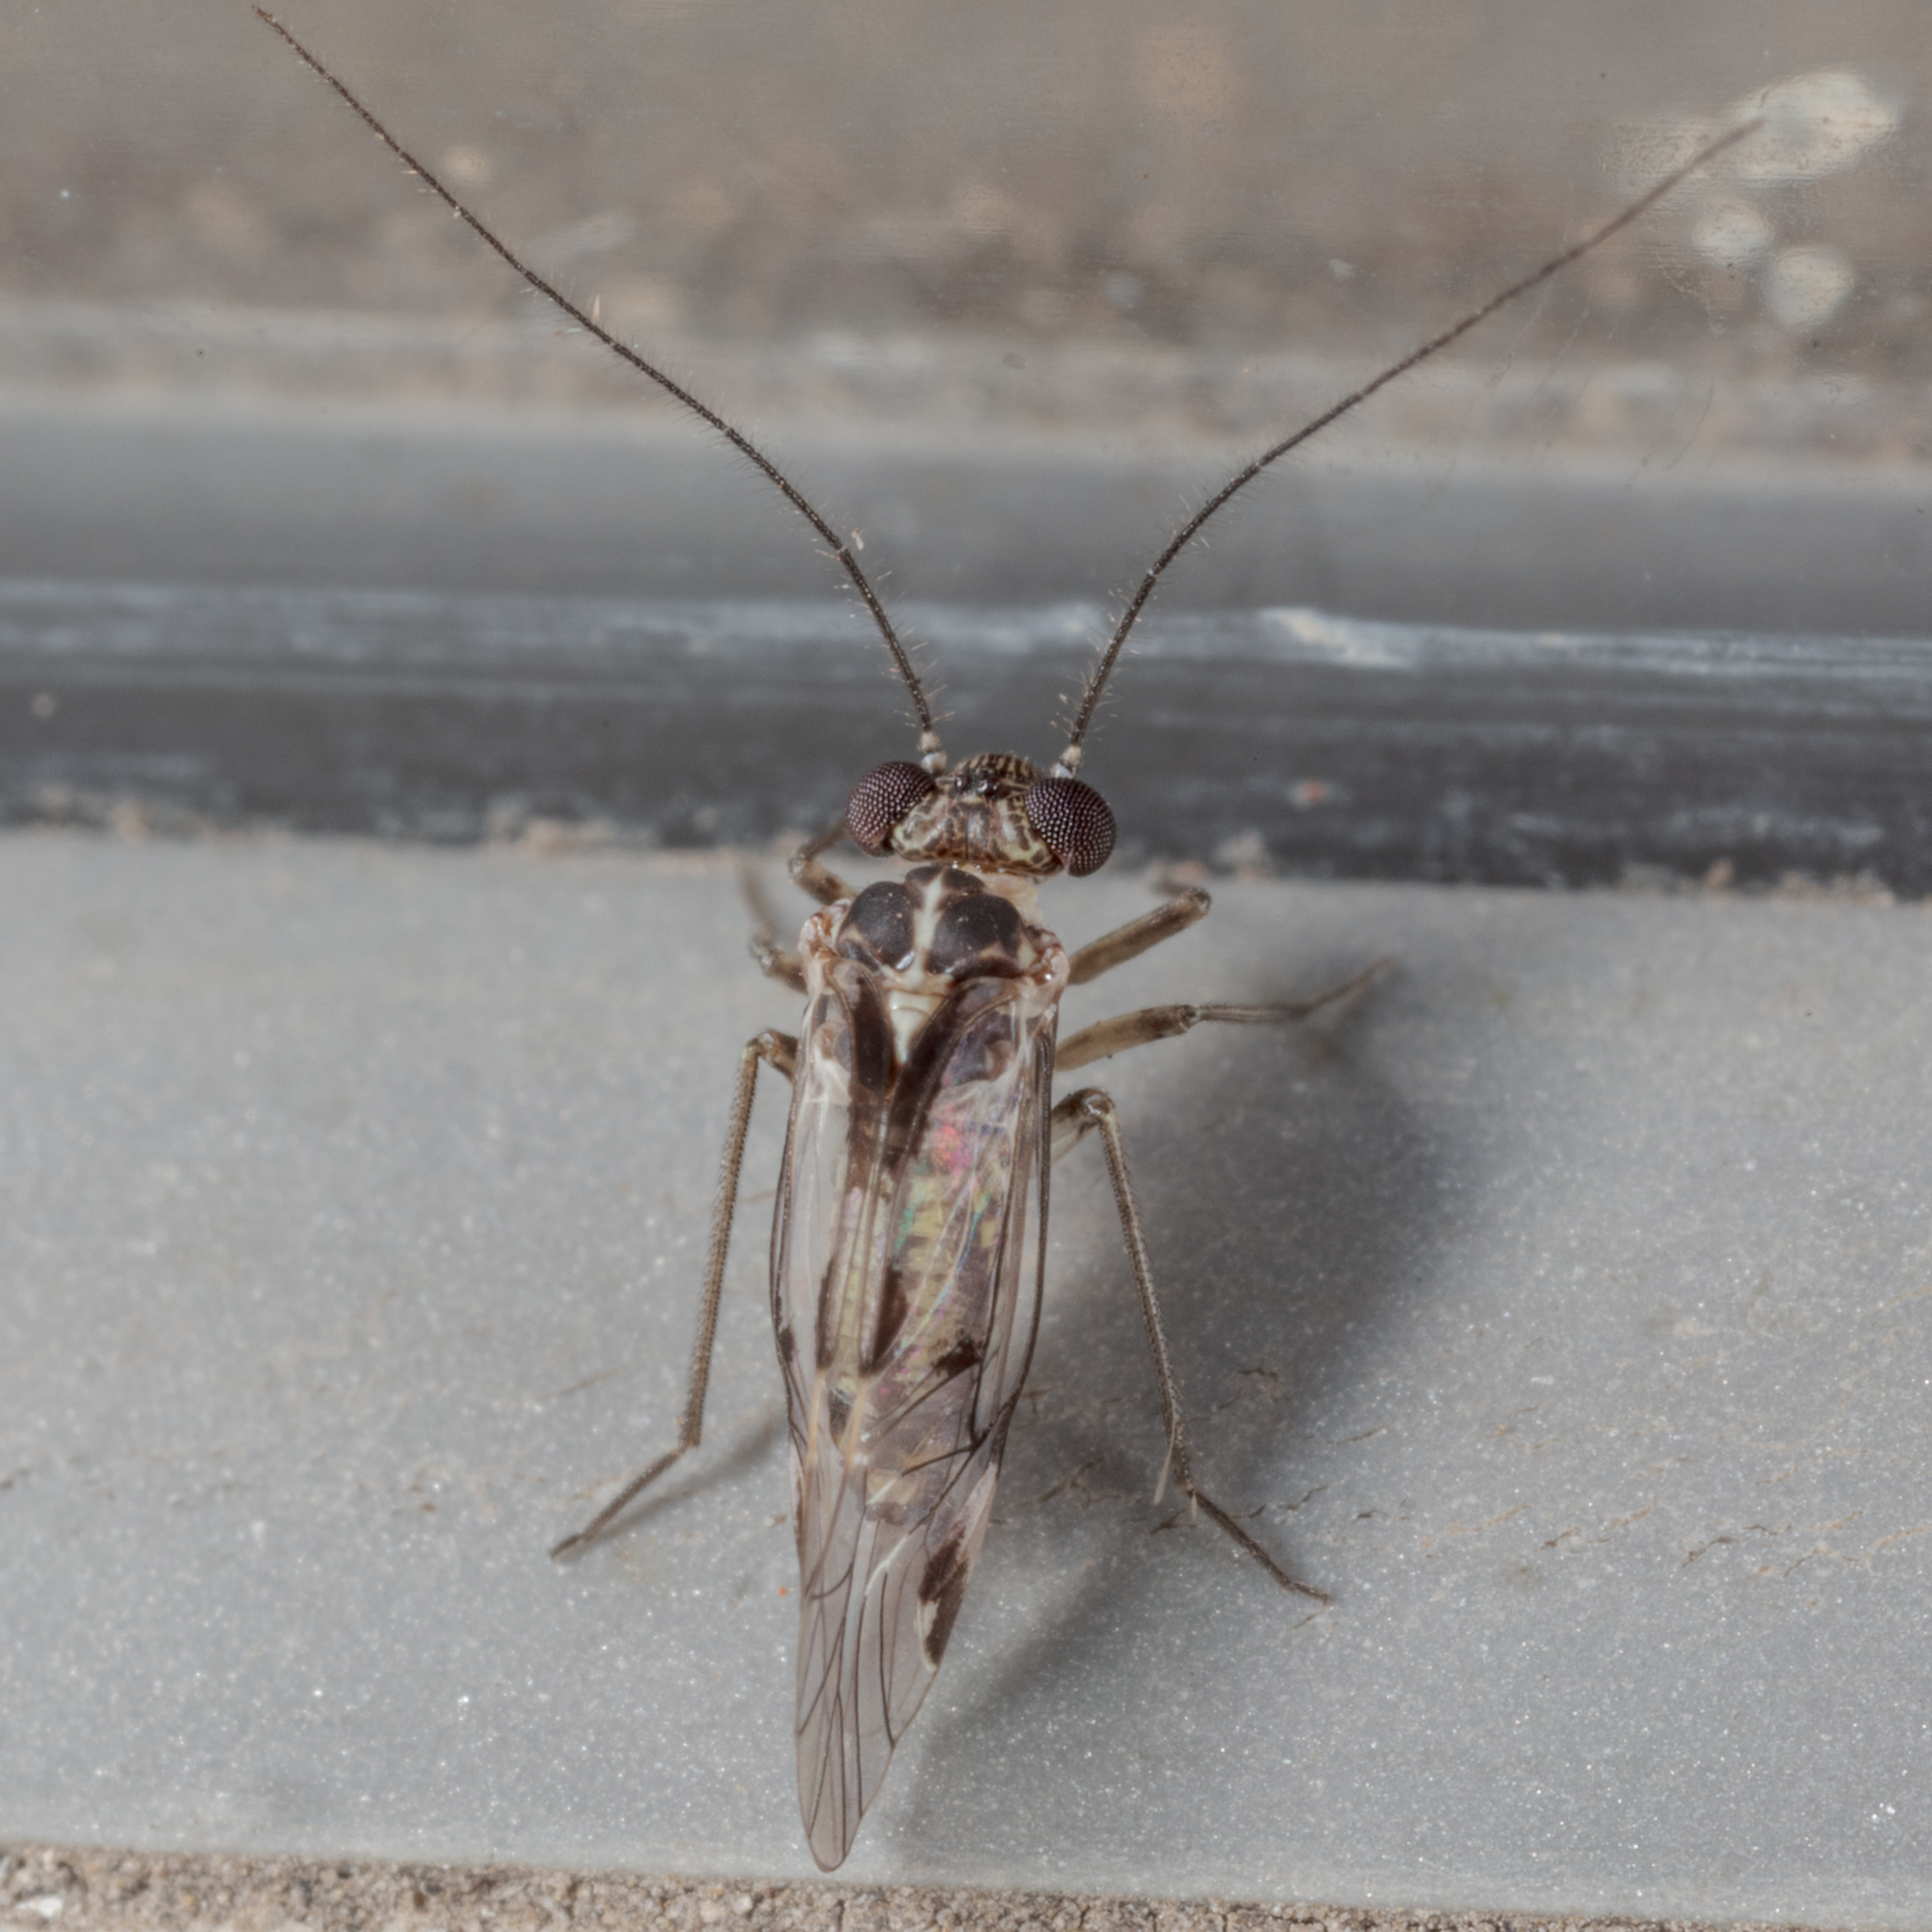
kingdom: Animalia
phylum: Arthropoda
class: Insecta
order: Psocodea
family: Psocidae
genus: Hyalopsocus
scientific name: Hyalopsocus striatus
